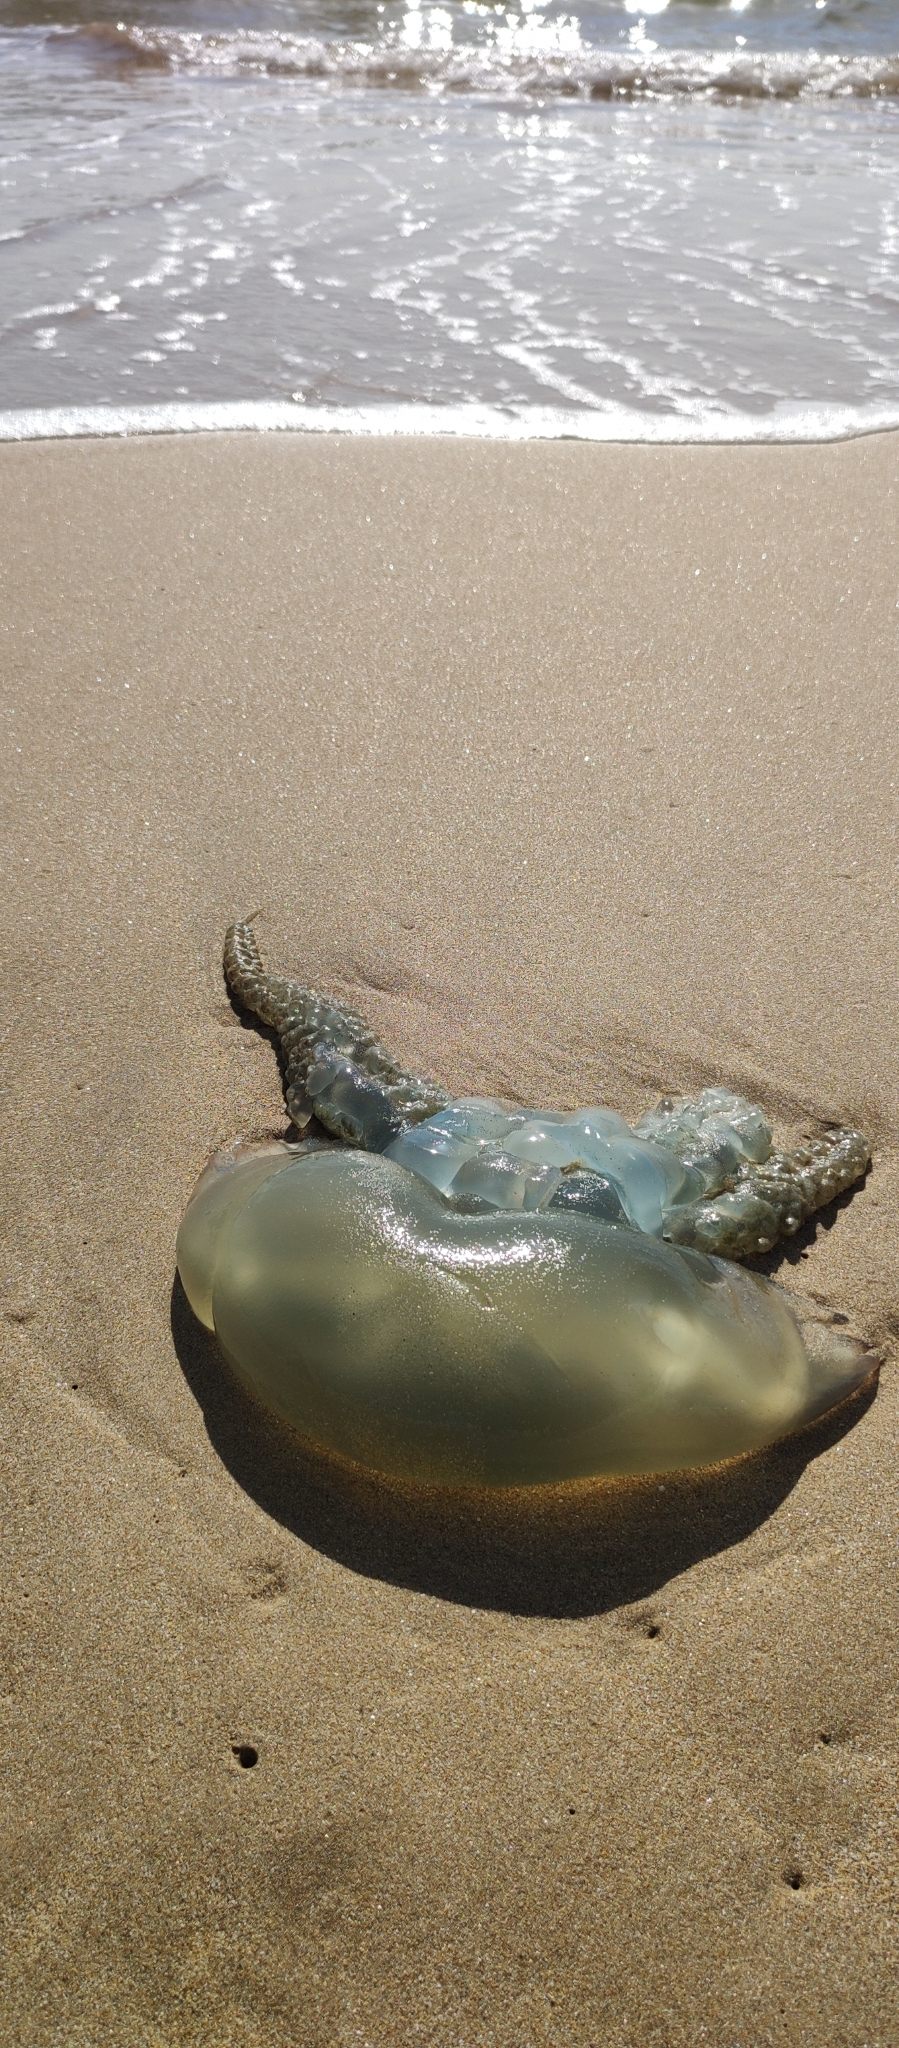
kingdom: Animalia
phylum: Cnidaria
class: Scyphozoa
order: Rhizostomeae
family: Catostylidae
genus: Catostylus
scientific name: Catostylus tagi
